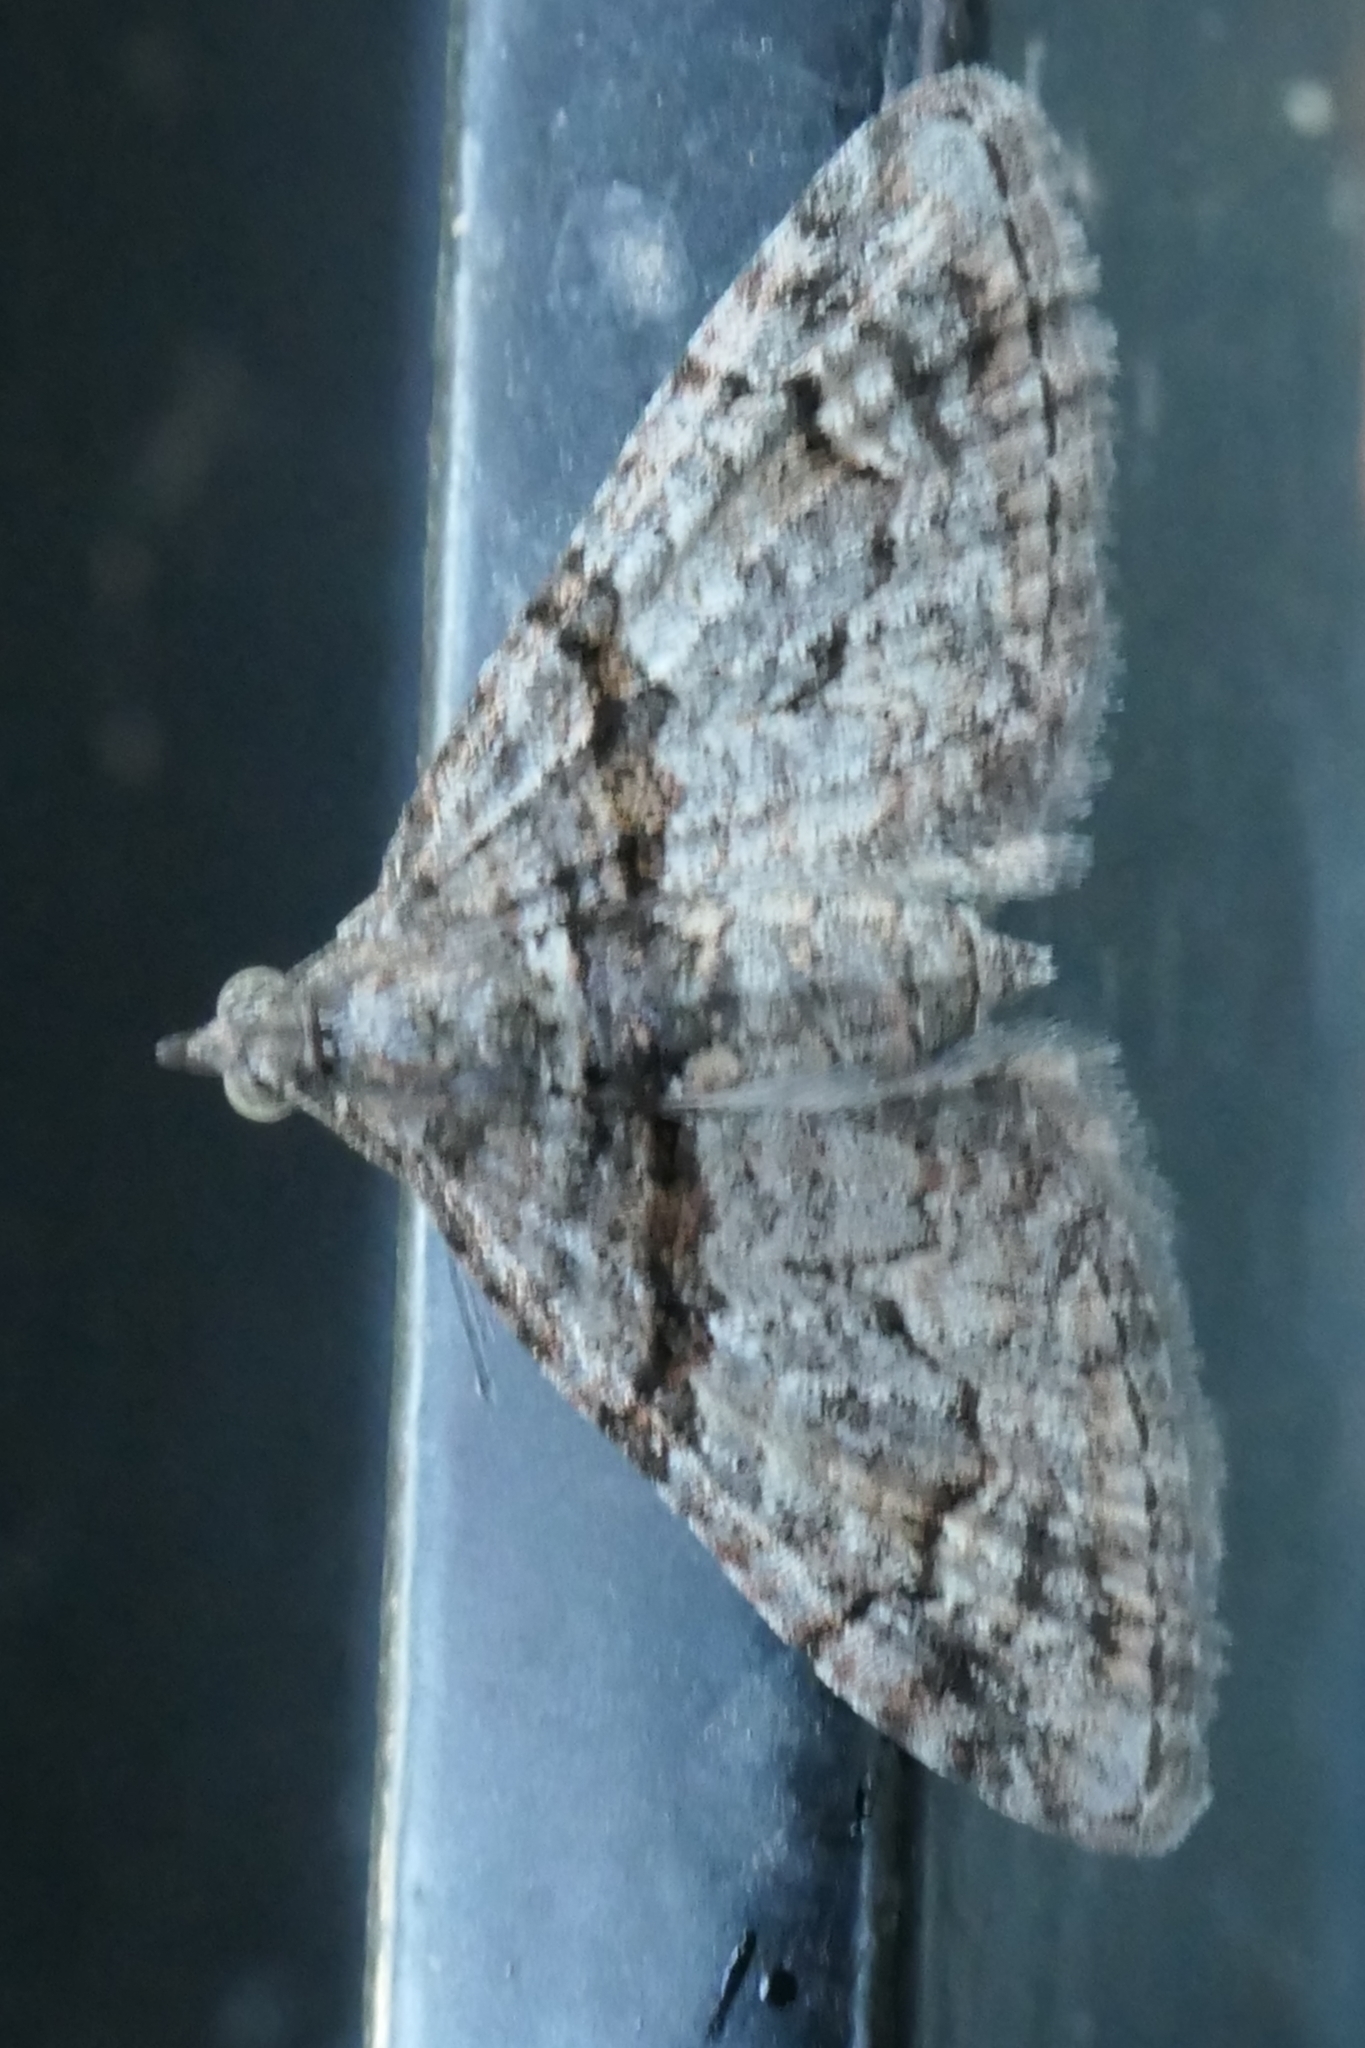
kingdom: Animalia
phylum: Arthropoda
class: Insecta
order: Lepidoptera
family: Geometridae
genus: Phrissogonus
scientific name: Phrissogonus laticostata
